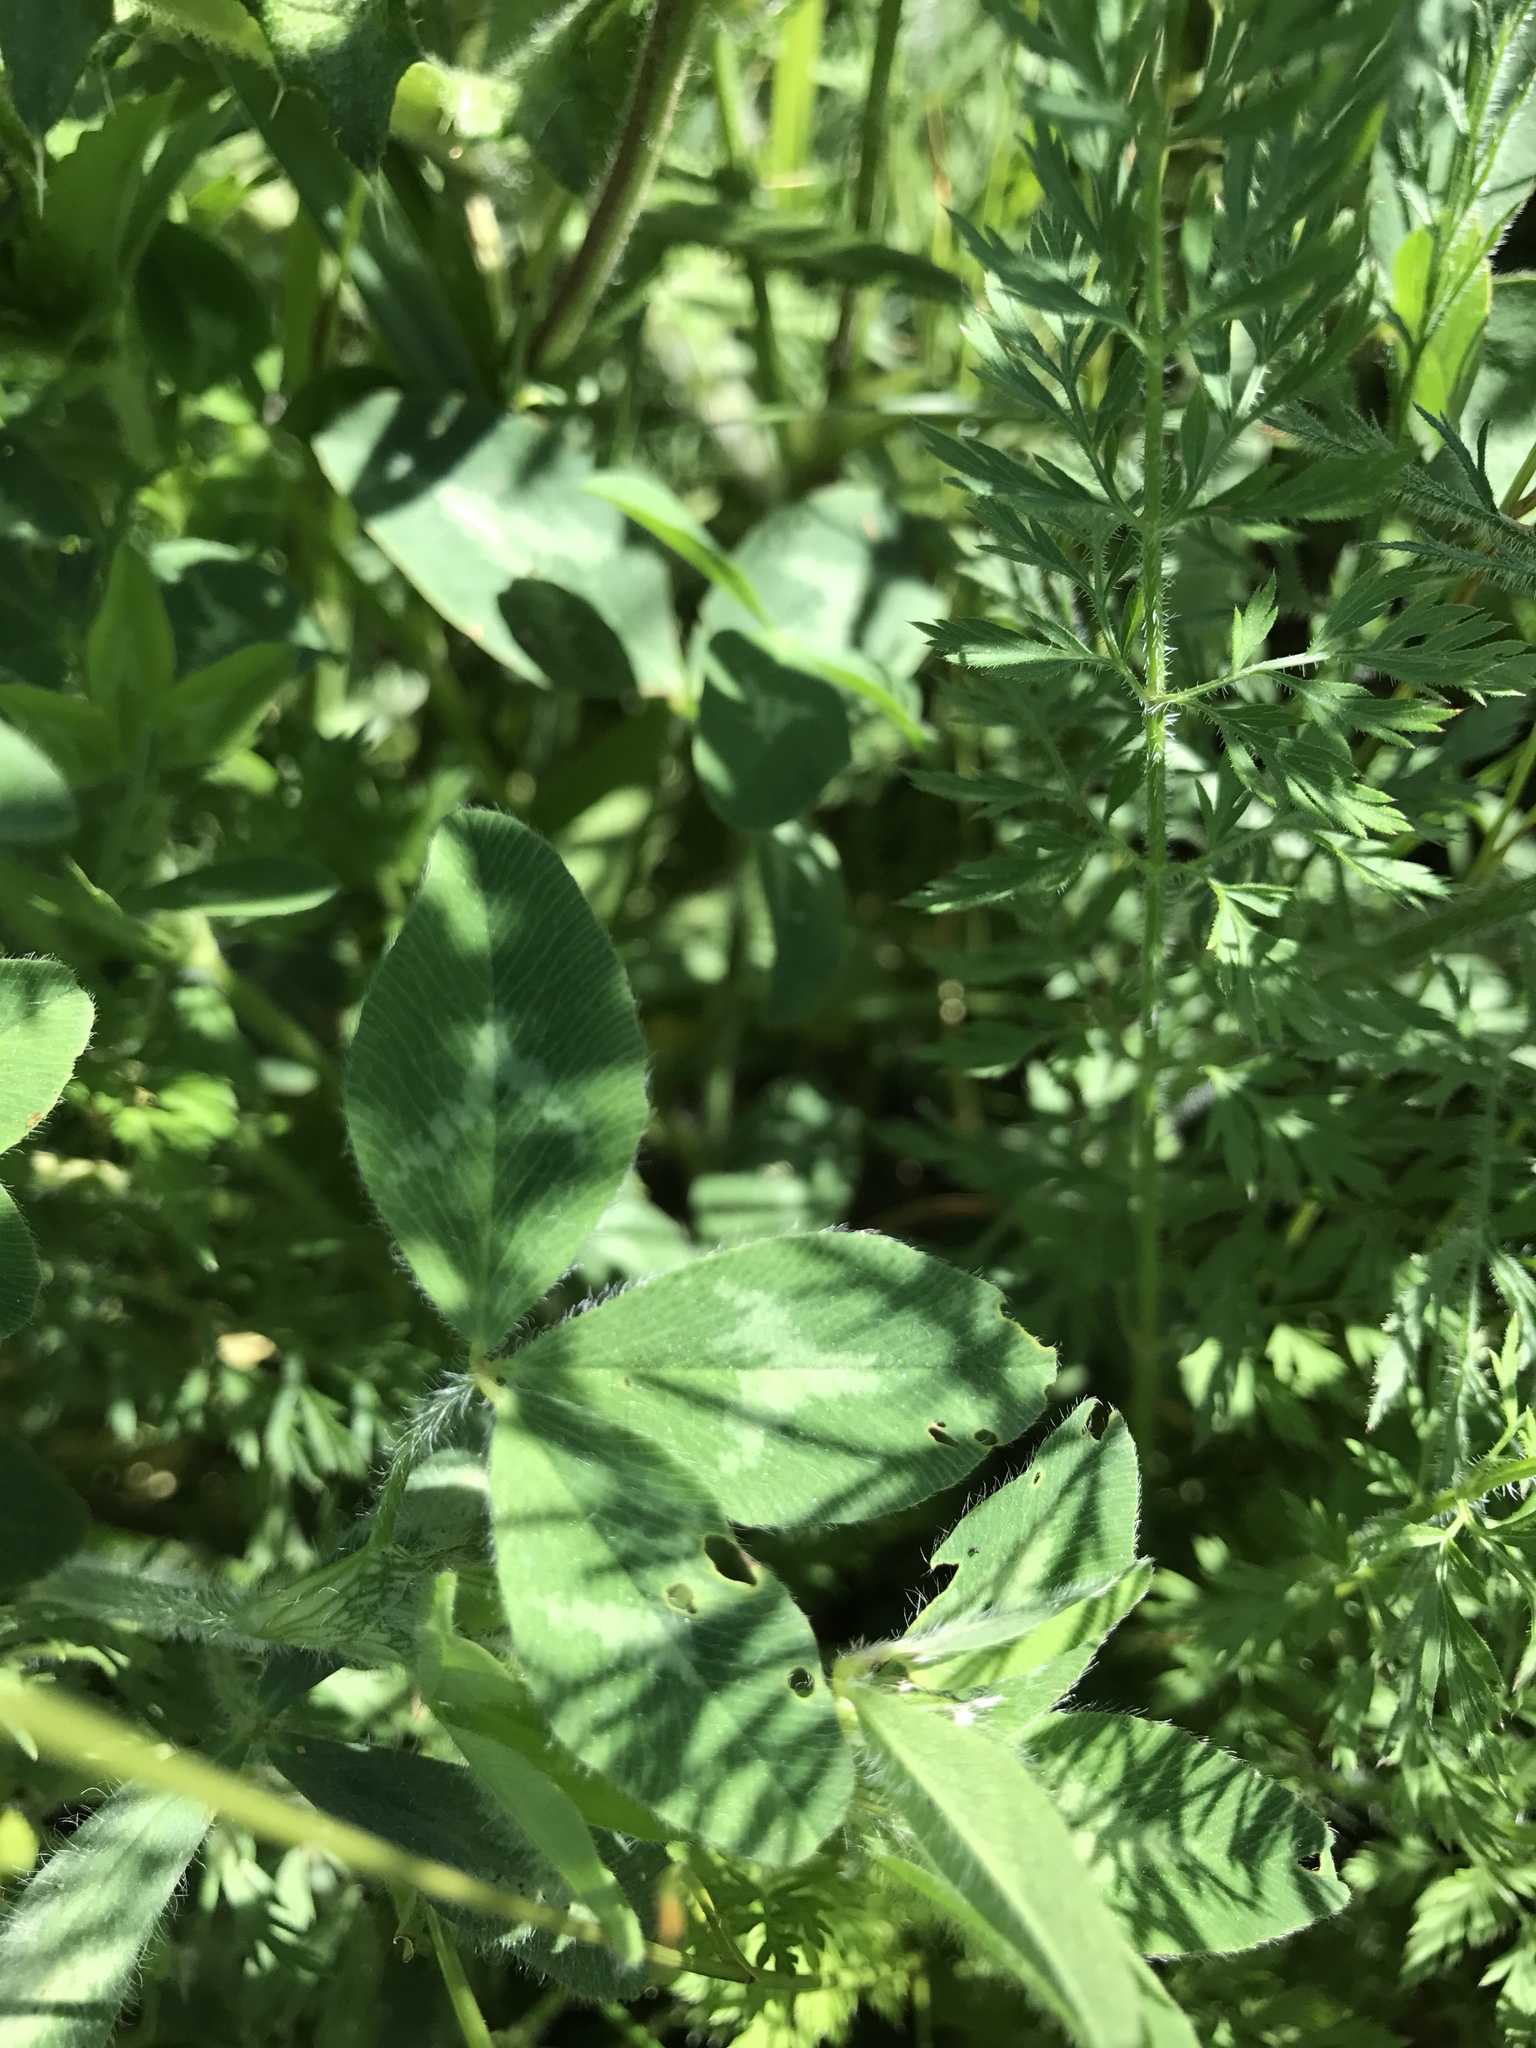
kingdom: Plantae
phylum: Tracheophyta
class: Magnoliopsida
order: Fabales
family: Fabaceae
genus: Trifolium
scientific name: Trifolium pratense
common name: Red clover
